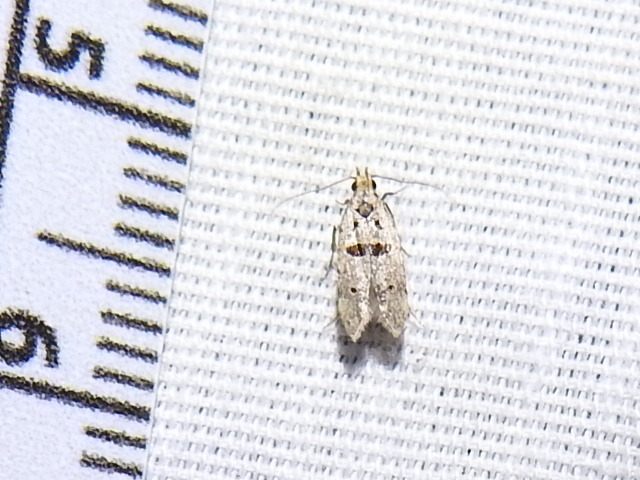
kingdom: Animalia
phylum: Arthropoda
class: Insecta
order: Lepidoptera
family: Gelechiidae
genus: Deltophora
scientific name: Deltophora glandiferella
